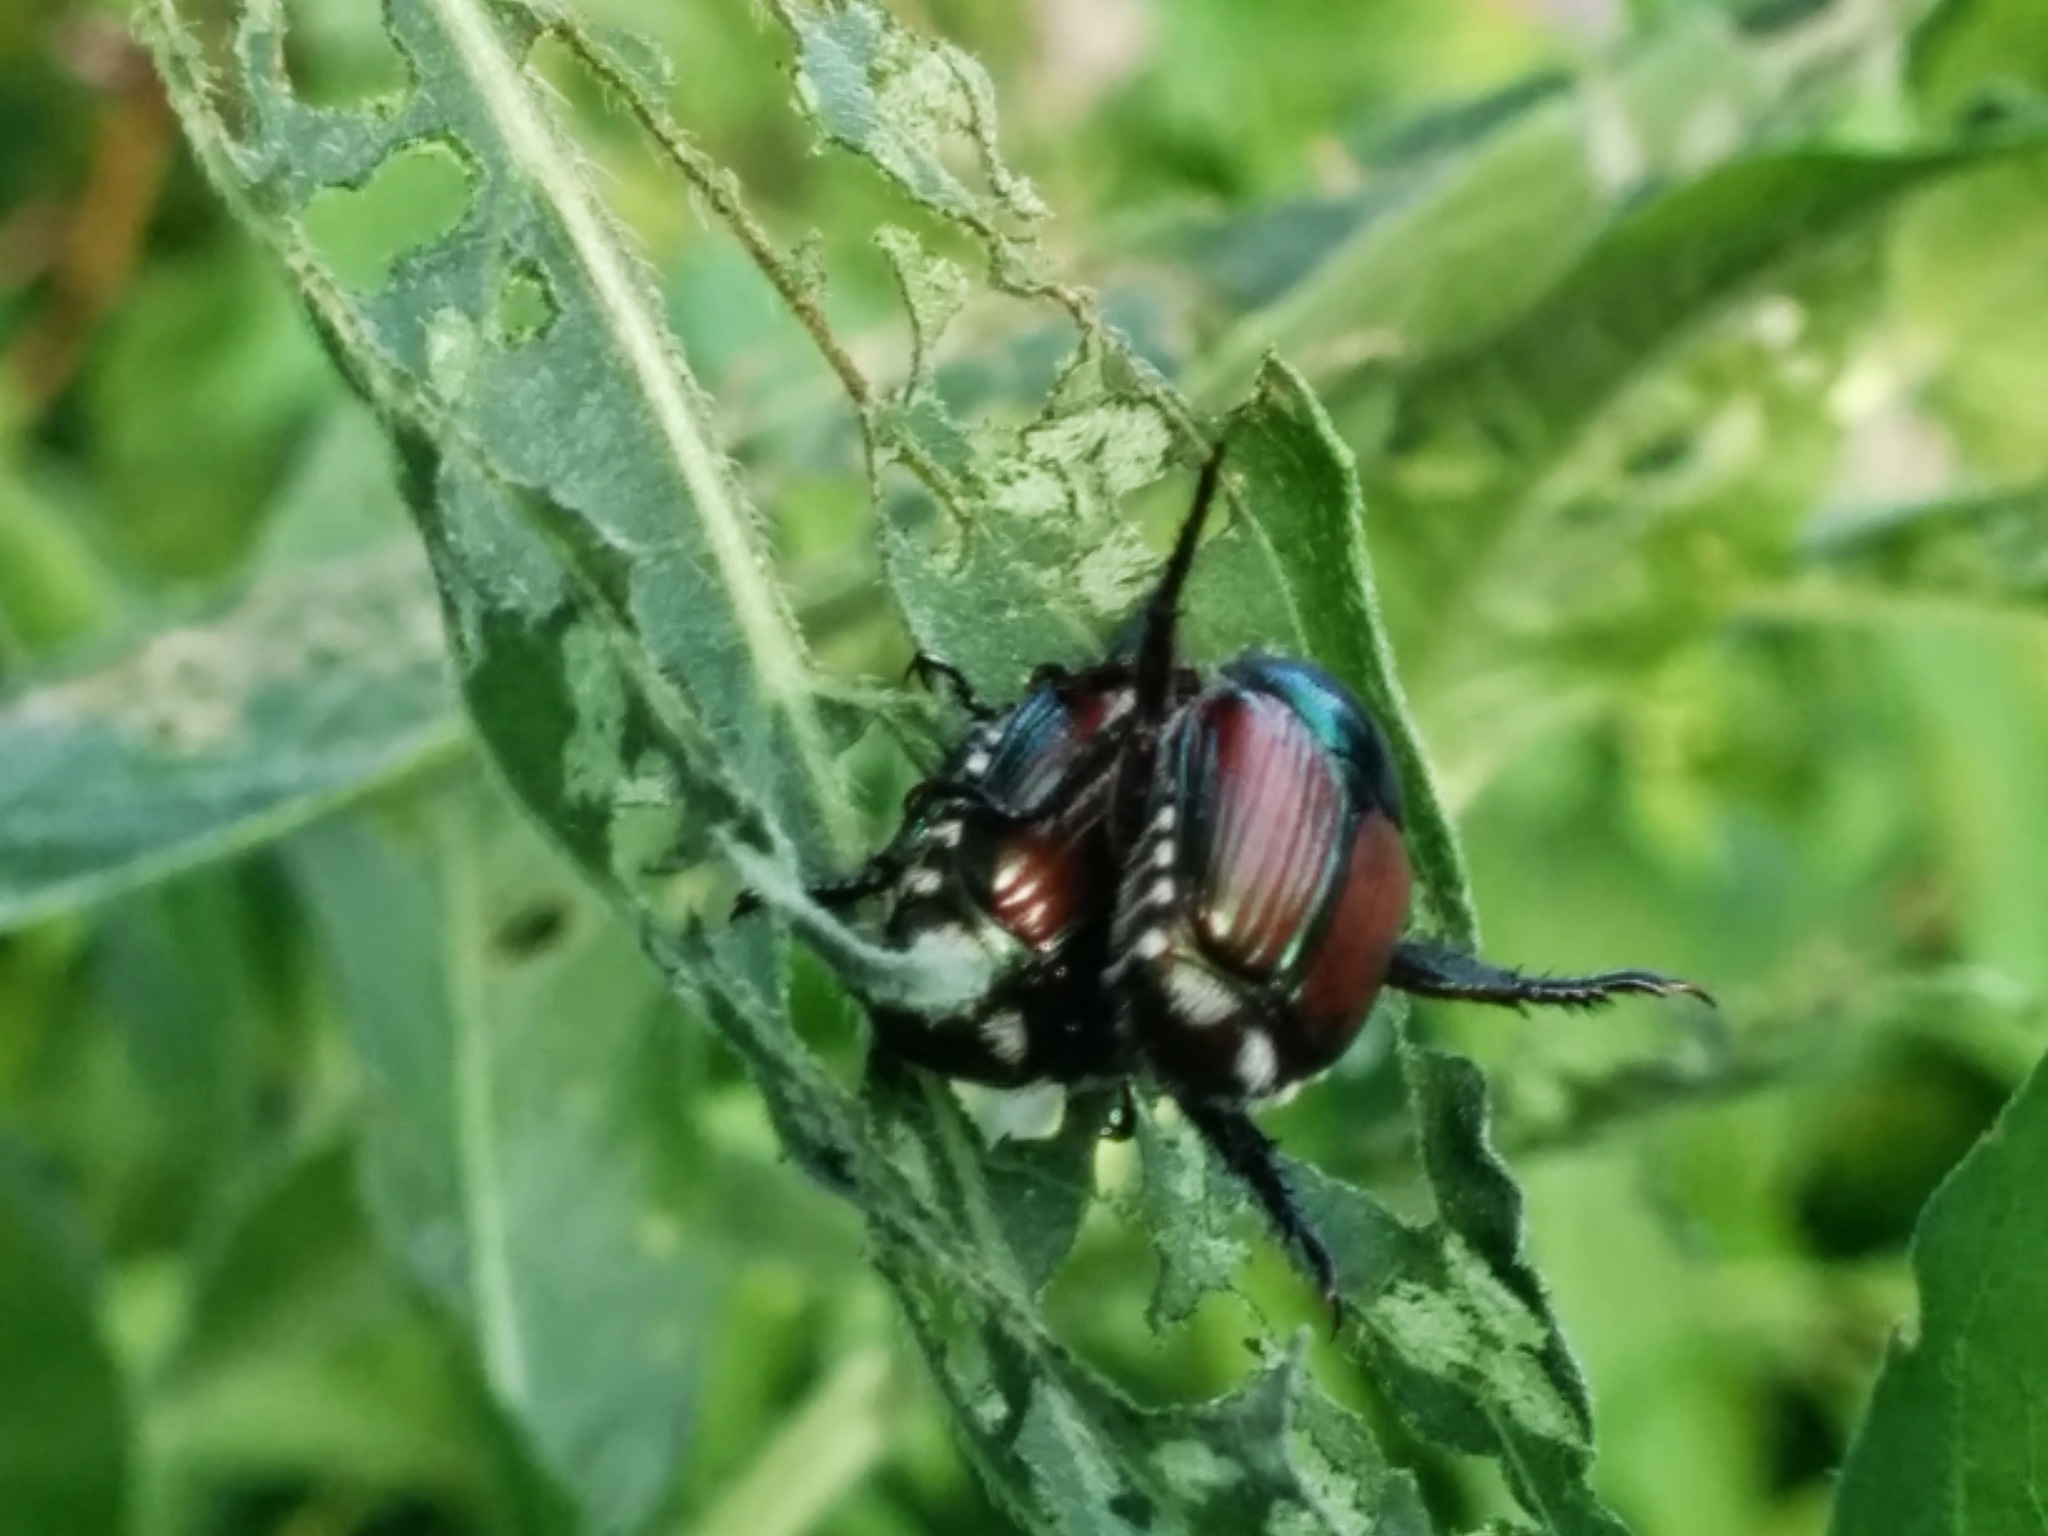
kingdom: Animalia
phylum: Arthropoda
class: Insecta
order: Coleoptera
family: Scarabaeidae
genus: Popillia
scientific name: Popillia japonica
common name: Japanese beetle
